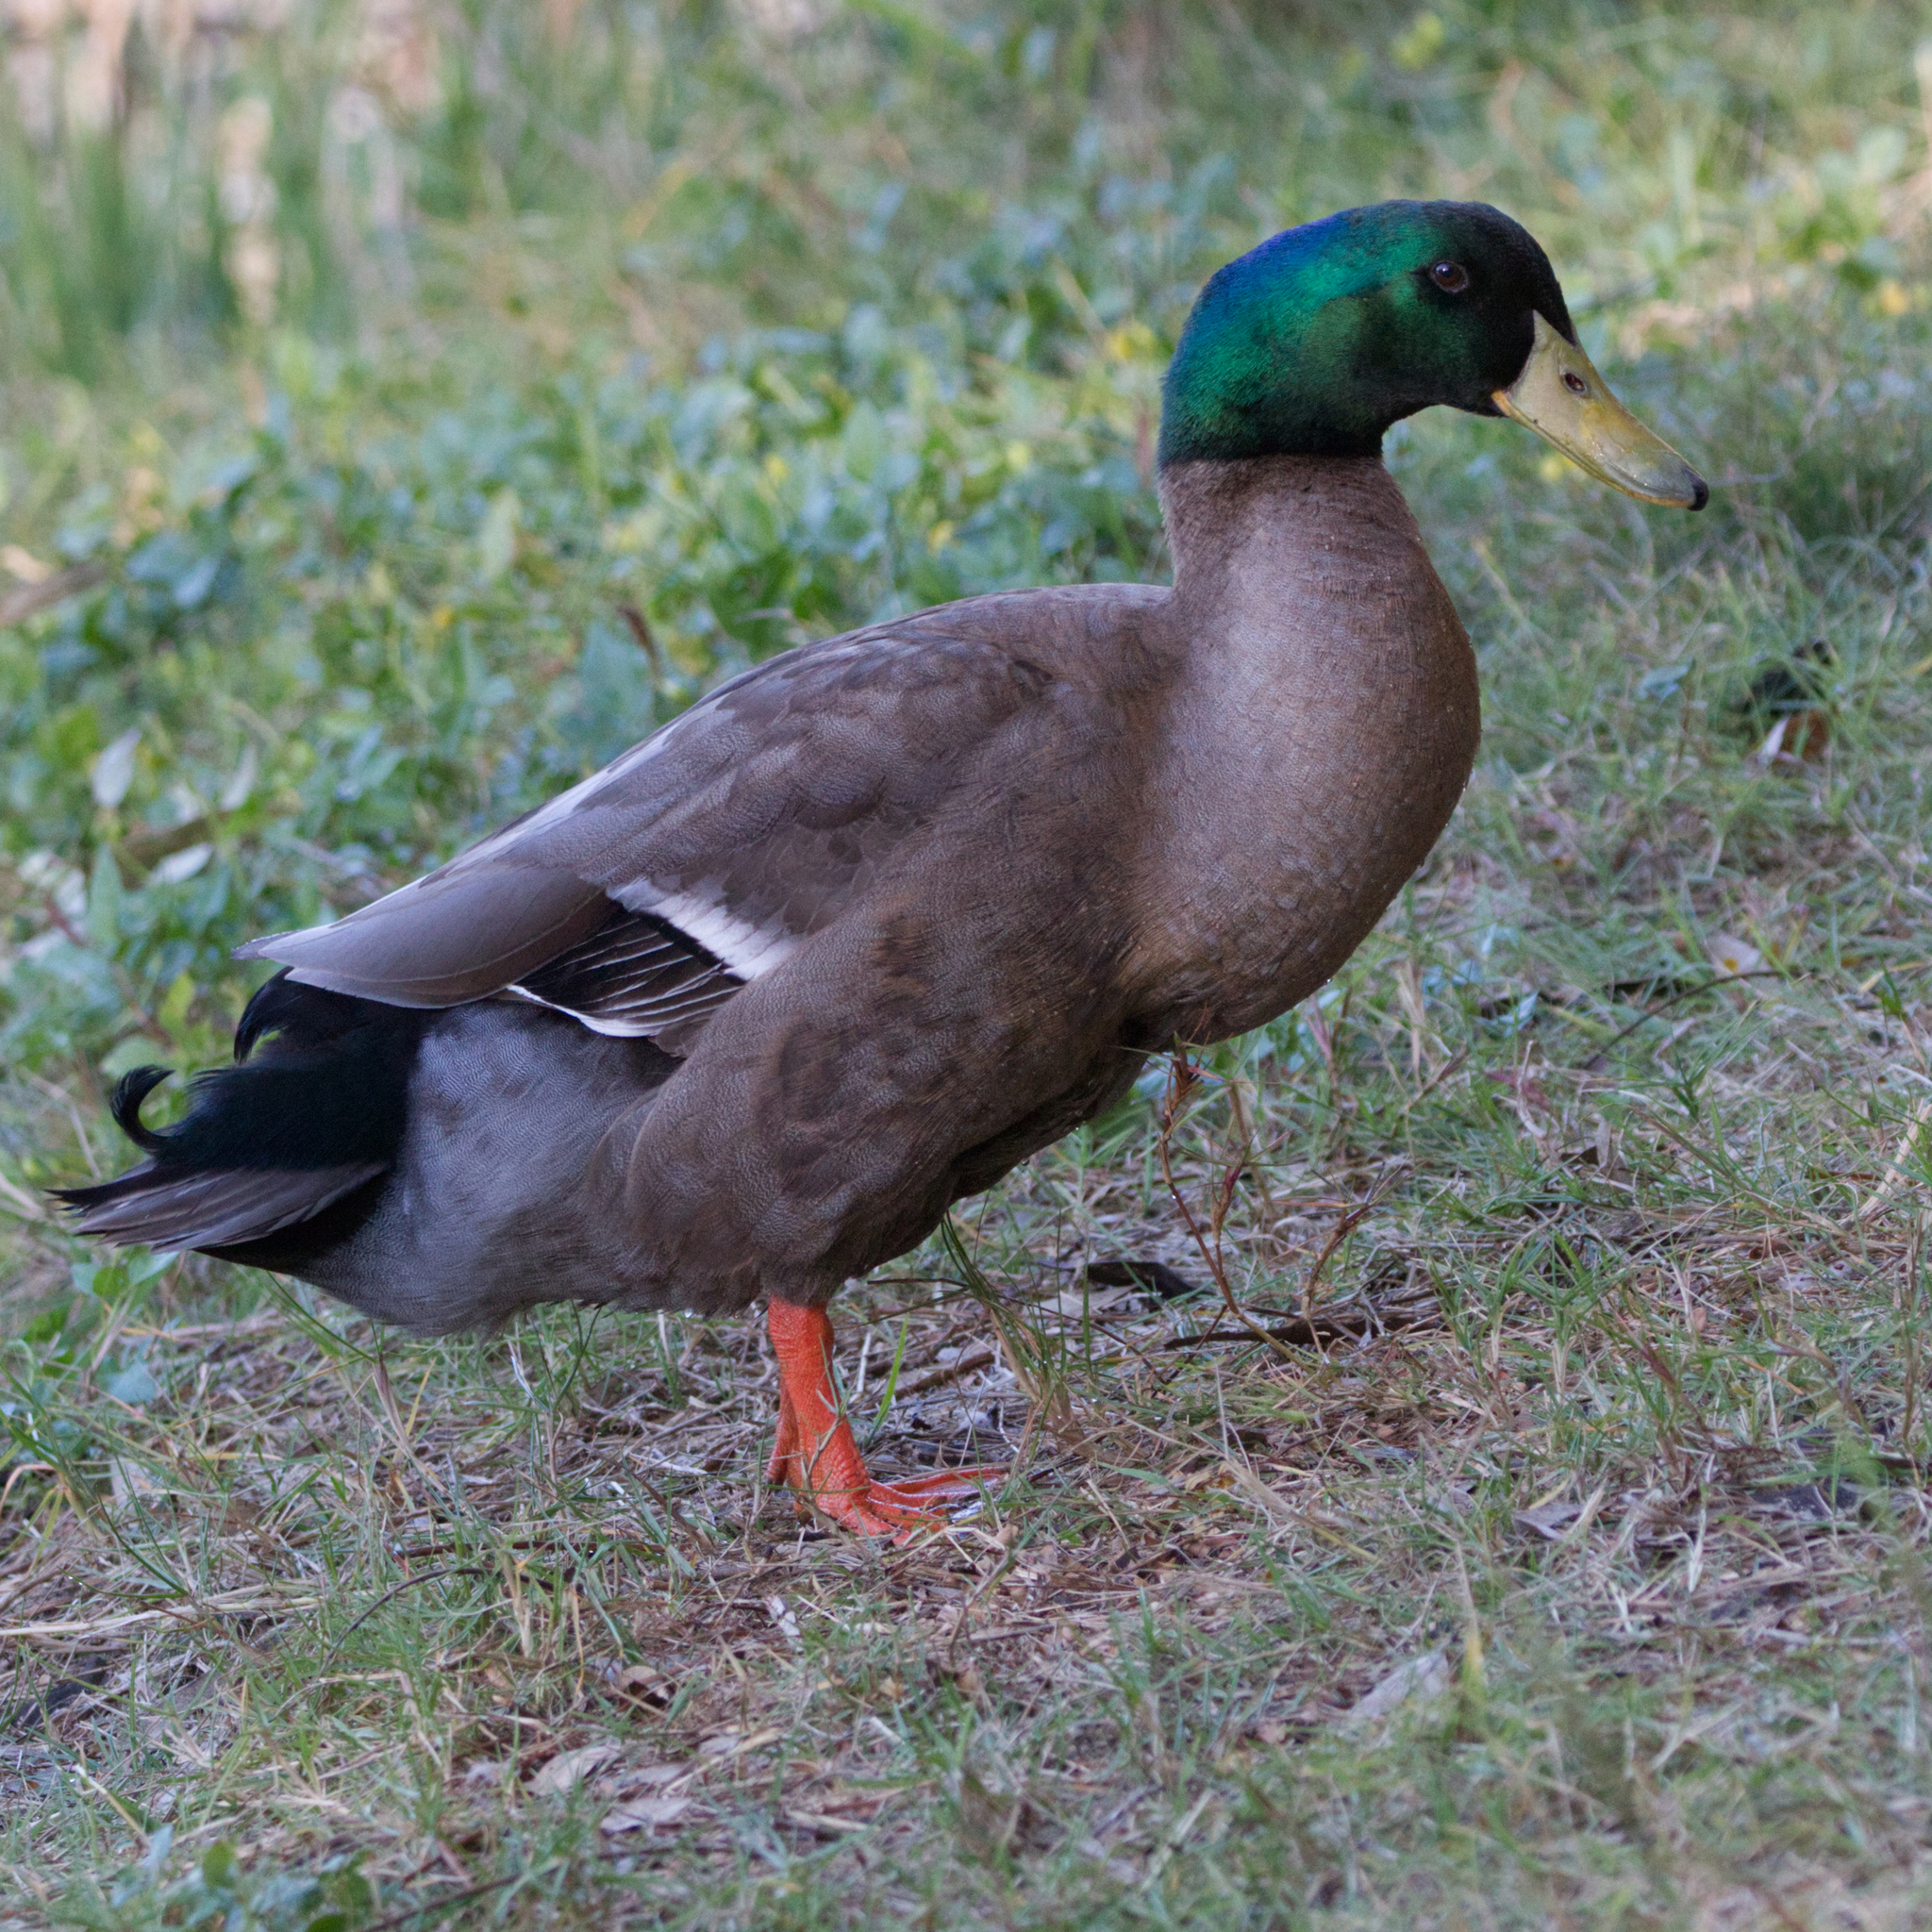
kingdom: Animalia
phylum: Chordata
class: Aves
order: Anseriformes
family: Anatidae
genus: Anas
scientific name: Anas platyrhynchos
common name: Mallard
